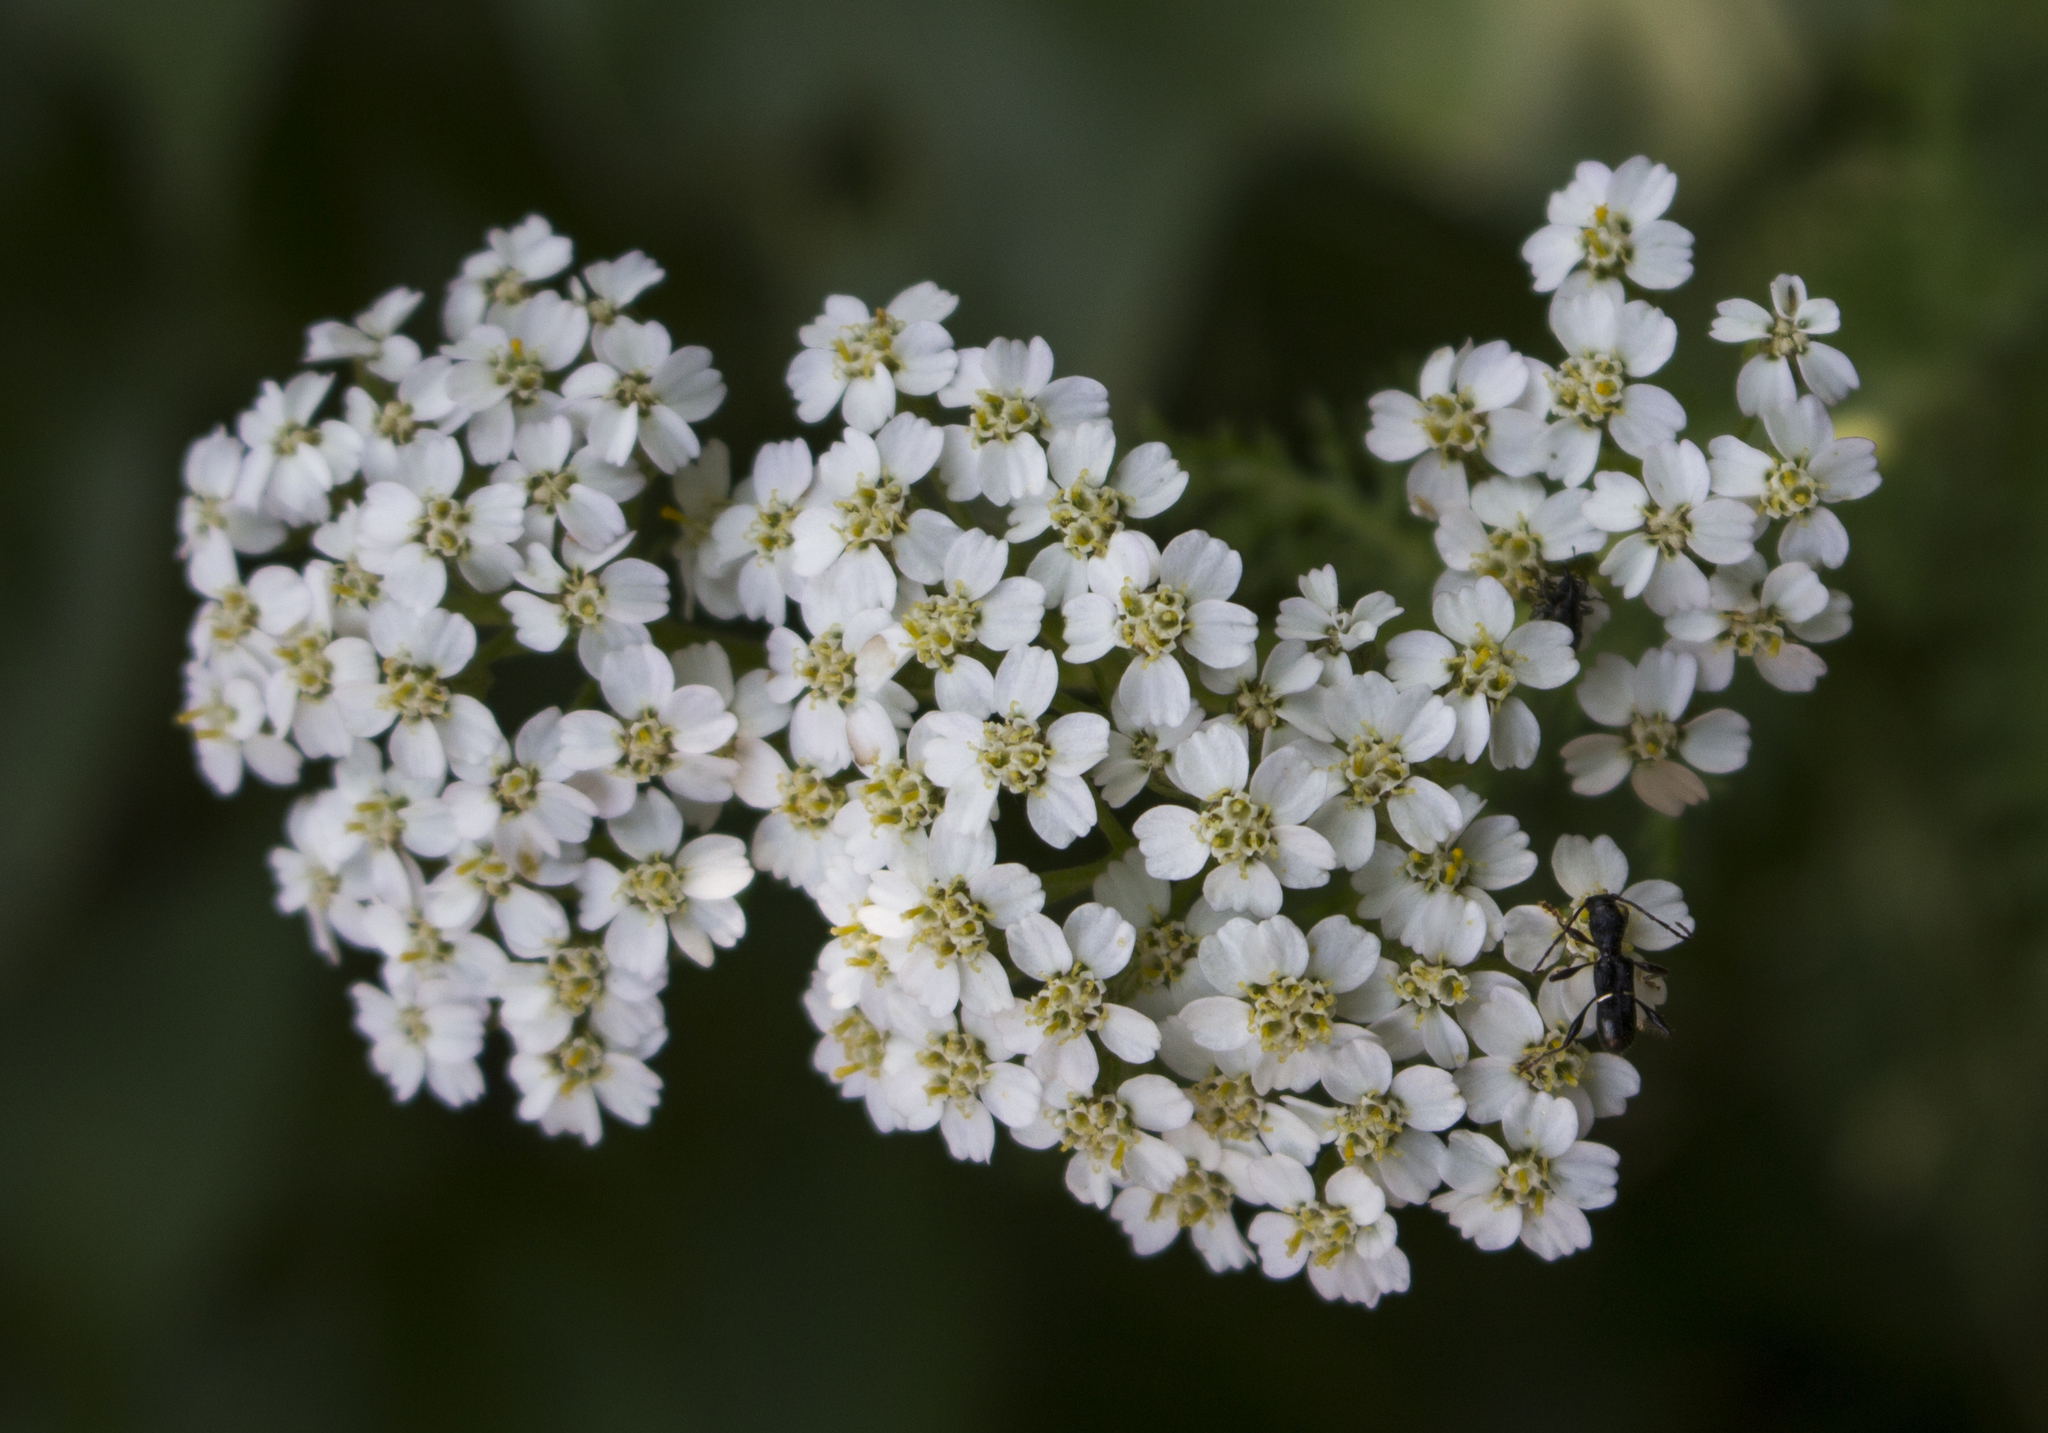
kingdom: Plantae
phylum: Tracheophyta
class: Magnoliopsida
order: Asterales
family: Asteraceae
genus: Achillea
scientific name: Achillea millefolium
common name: Yarrow
